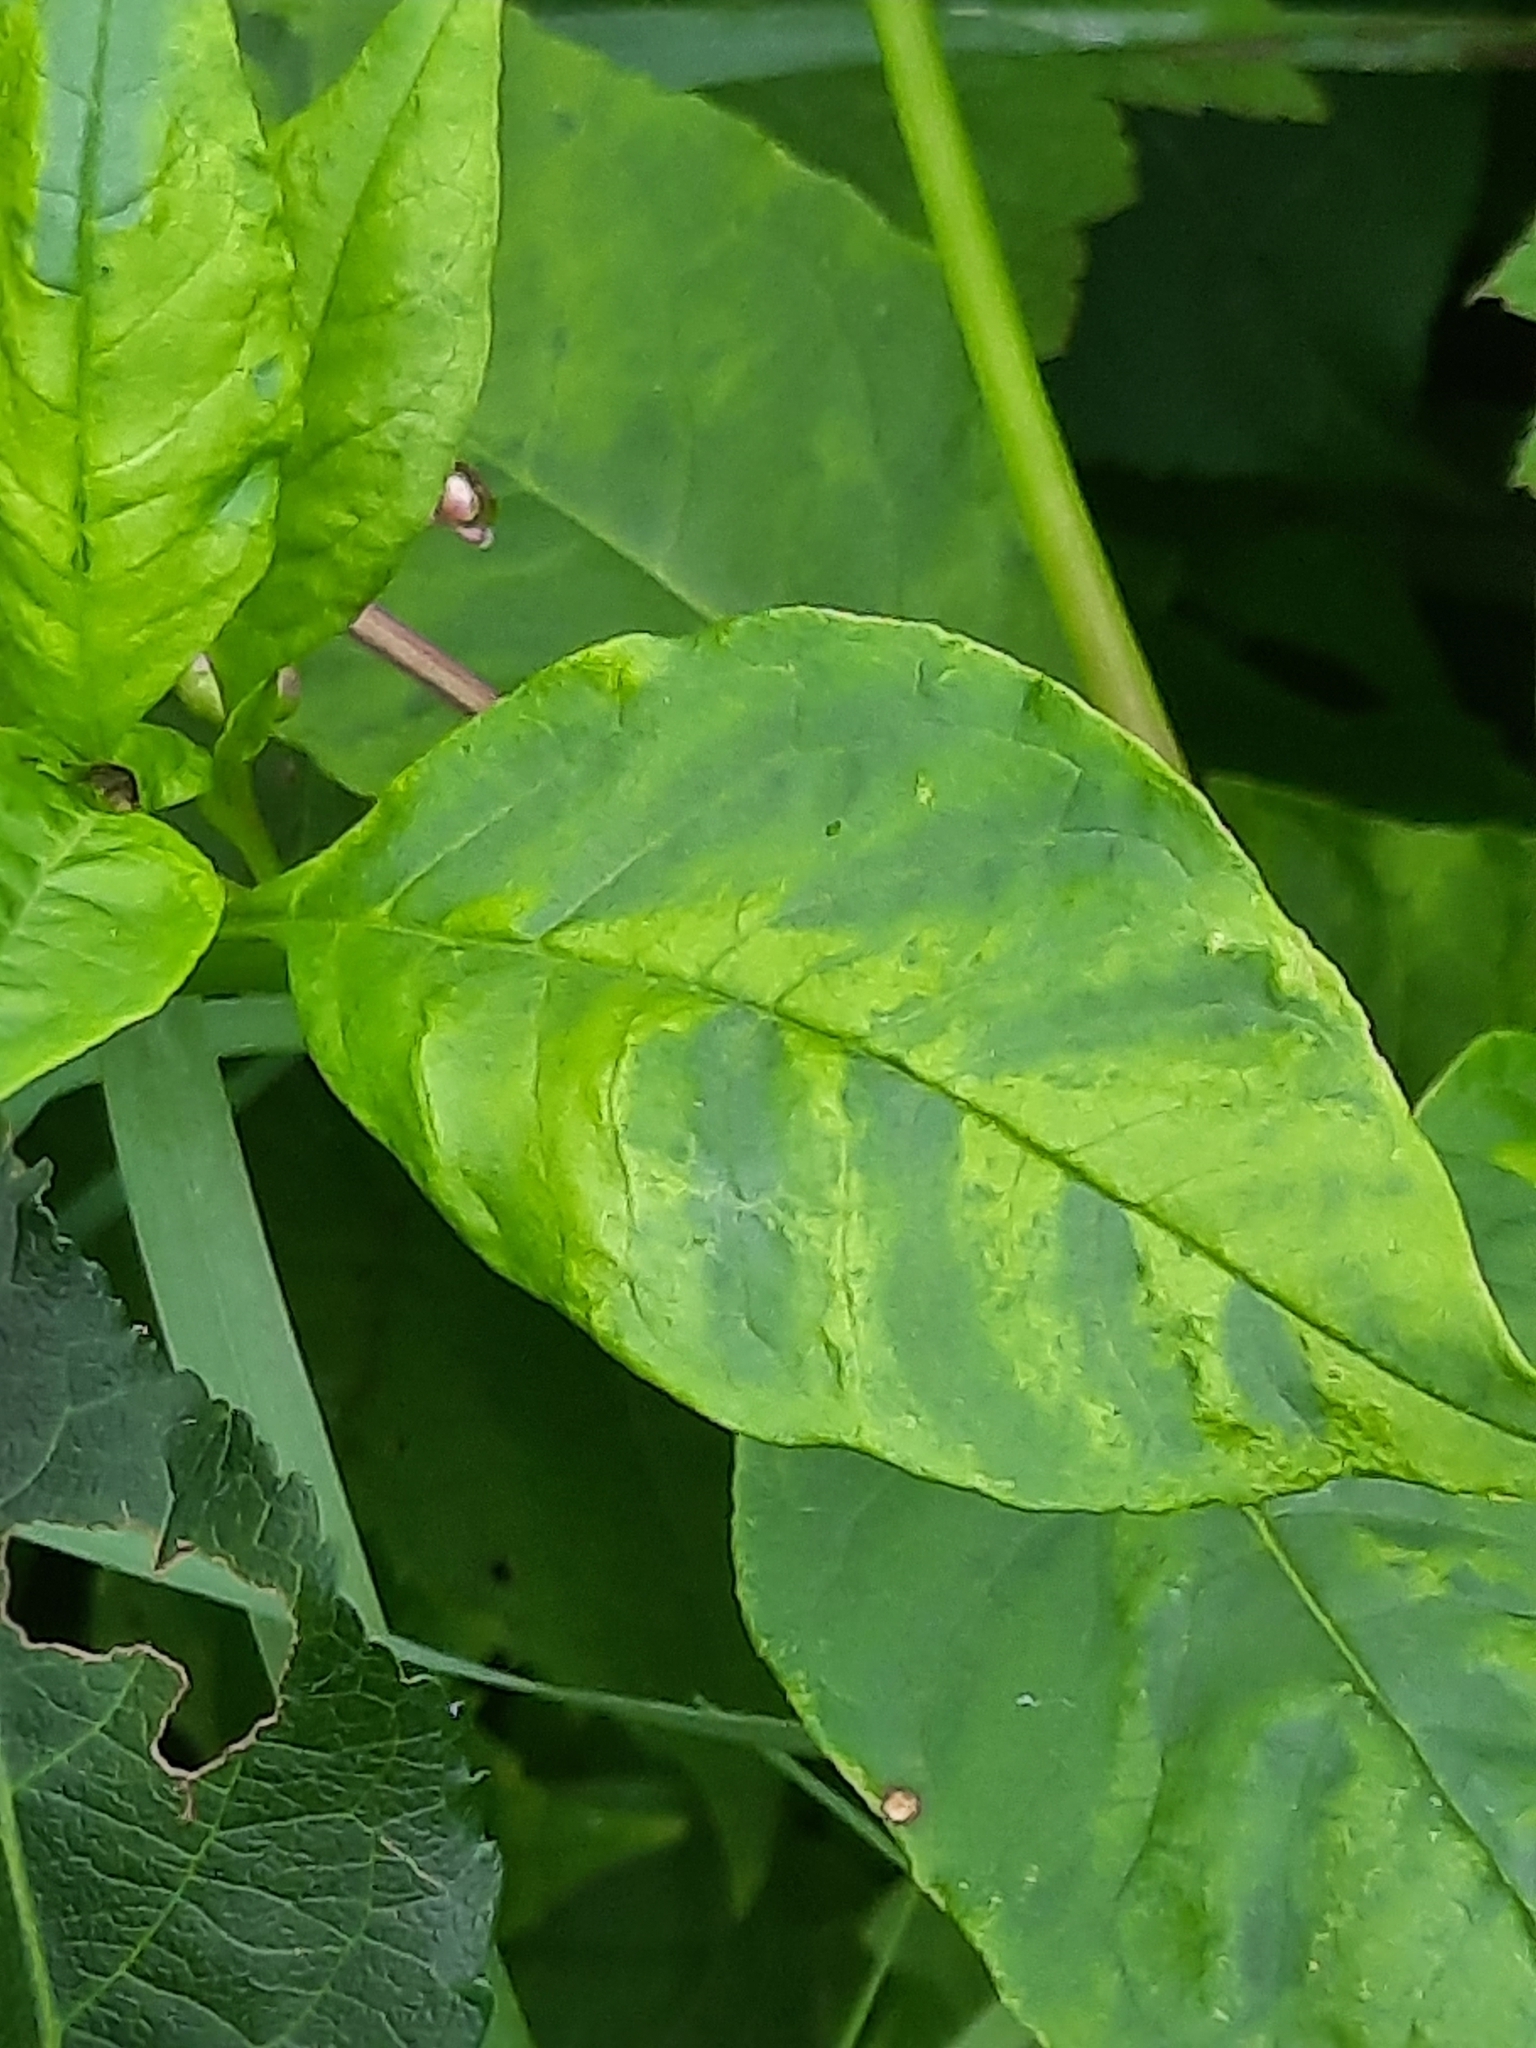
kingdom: Viruses
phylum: Pisuviricota
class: Stelpaviricetes
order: Patatavirales
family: Potyviridae
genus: Potyvirus
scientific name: Potyvirus Pokeweed mosaic virus
